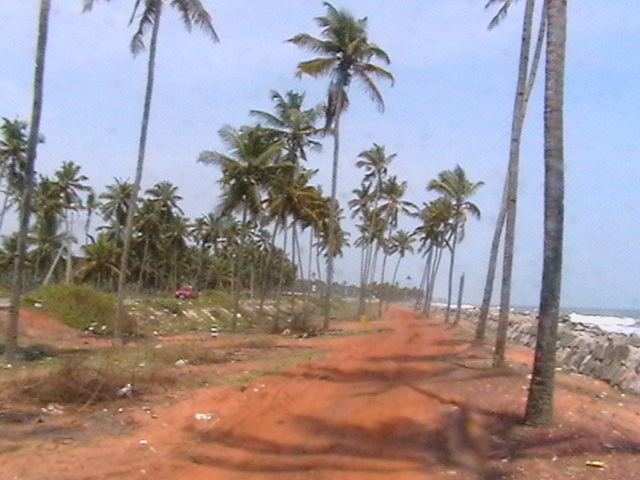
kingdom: Plantae
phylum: Tracheophyta
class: Liliopsida
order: Arecales
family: Arecaceae
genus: Cocos
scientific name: Cocos nucifera
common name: Coconut palm
